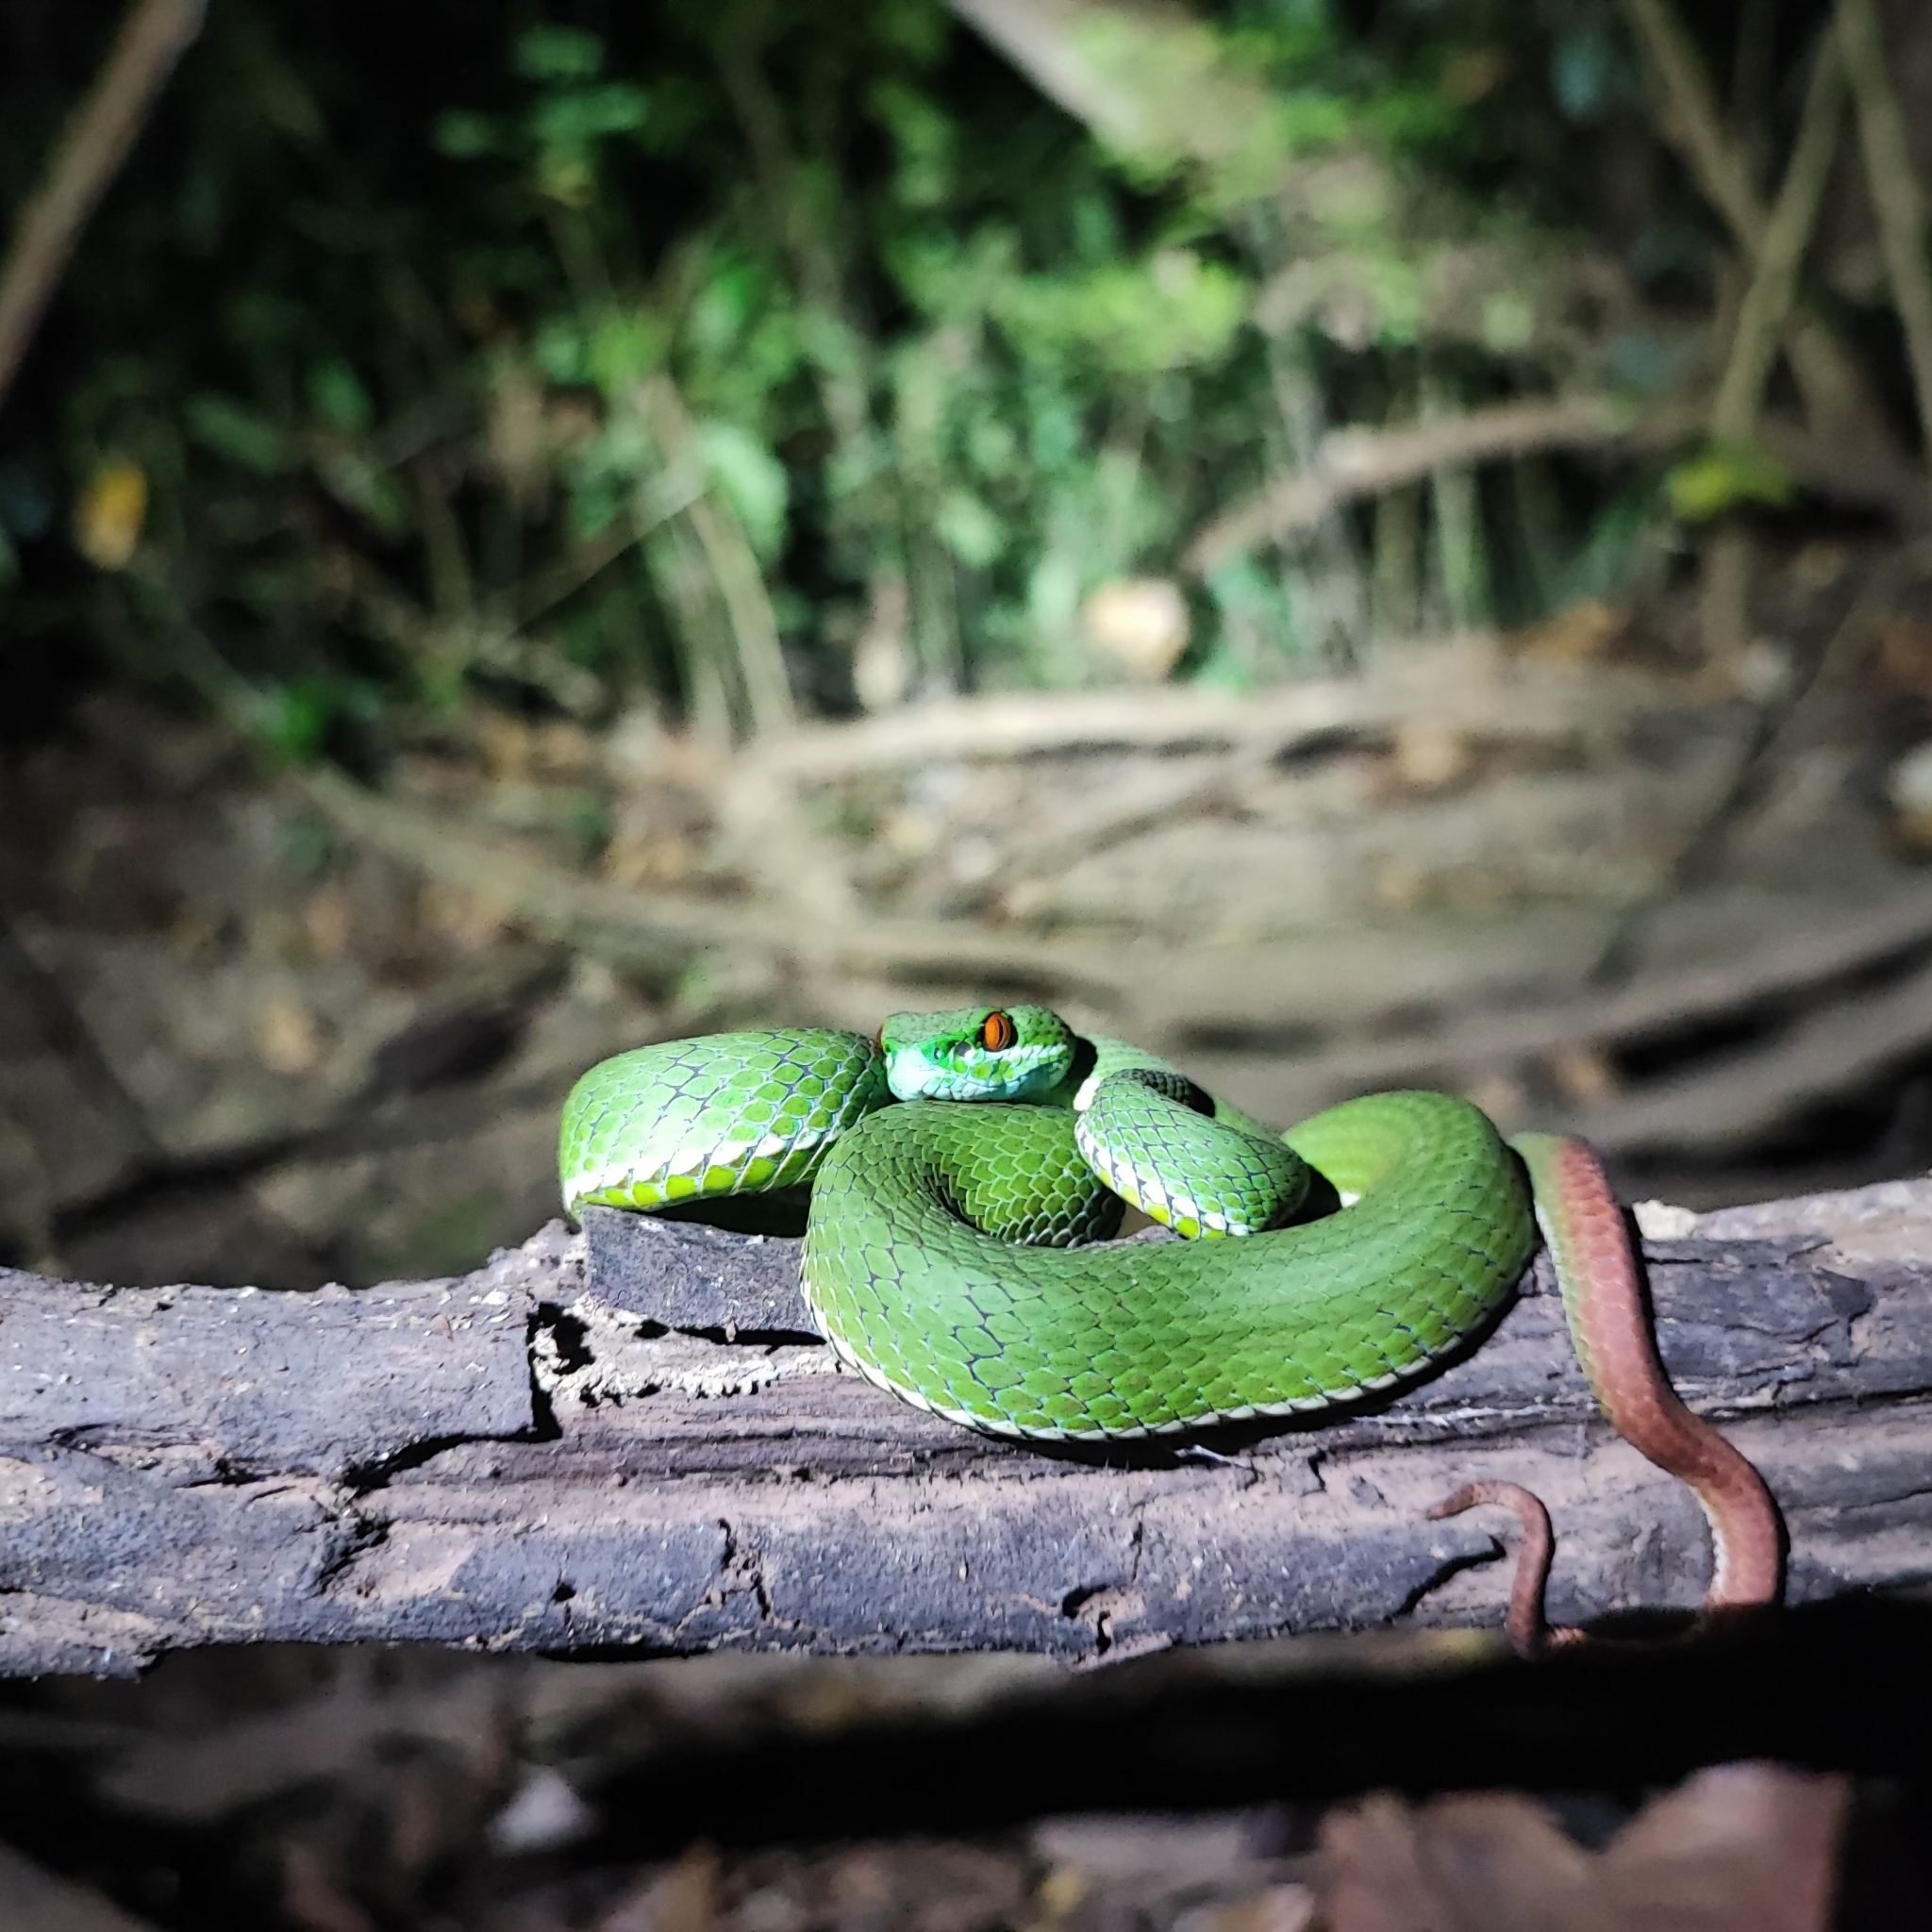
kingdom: Animalia
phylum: Chordata
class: Squamata
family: Viperidae
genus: Craspedocephalus
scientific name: Craspedocephalus rubeus
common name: Ruby-eyed green pitviper
